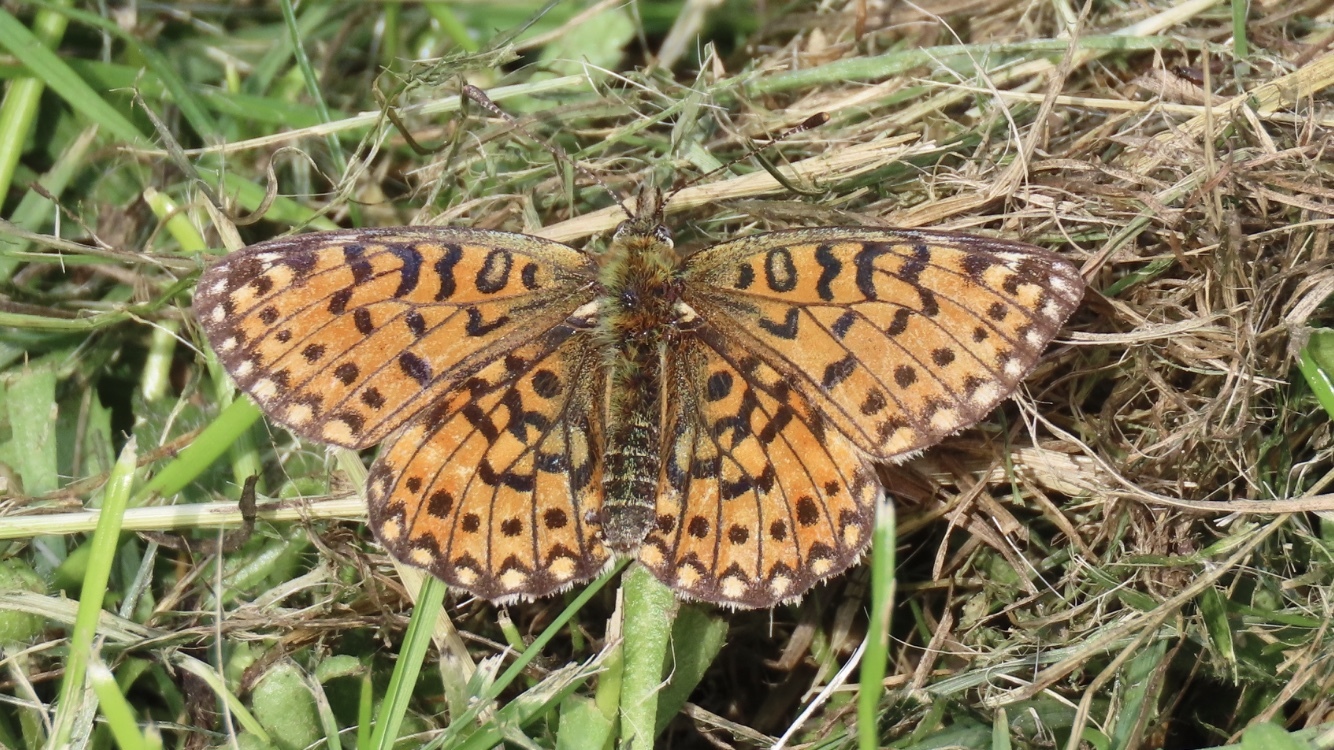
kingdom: Animalia
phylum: Arthropoda
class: Insecta
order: Lepidoptera
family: Nymphalidae
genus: Boloria
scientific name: Boloria selene
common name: Small pearl-bordered fritillary
